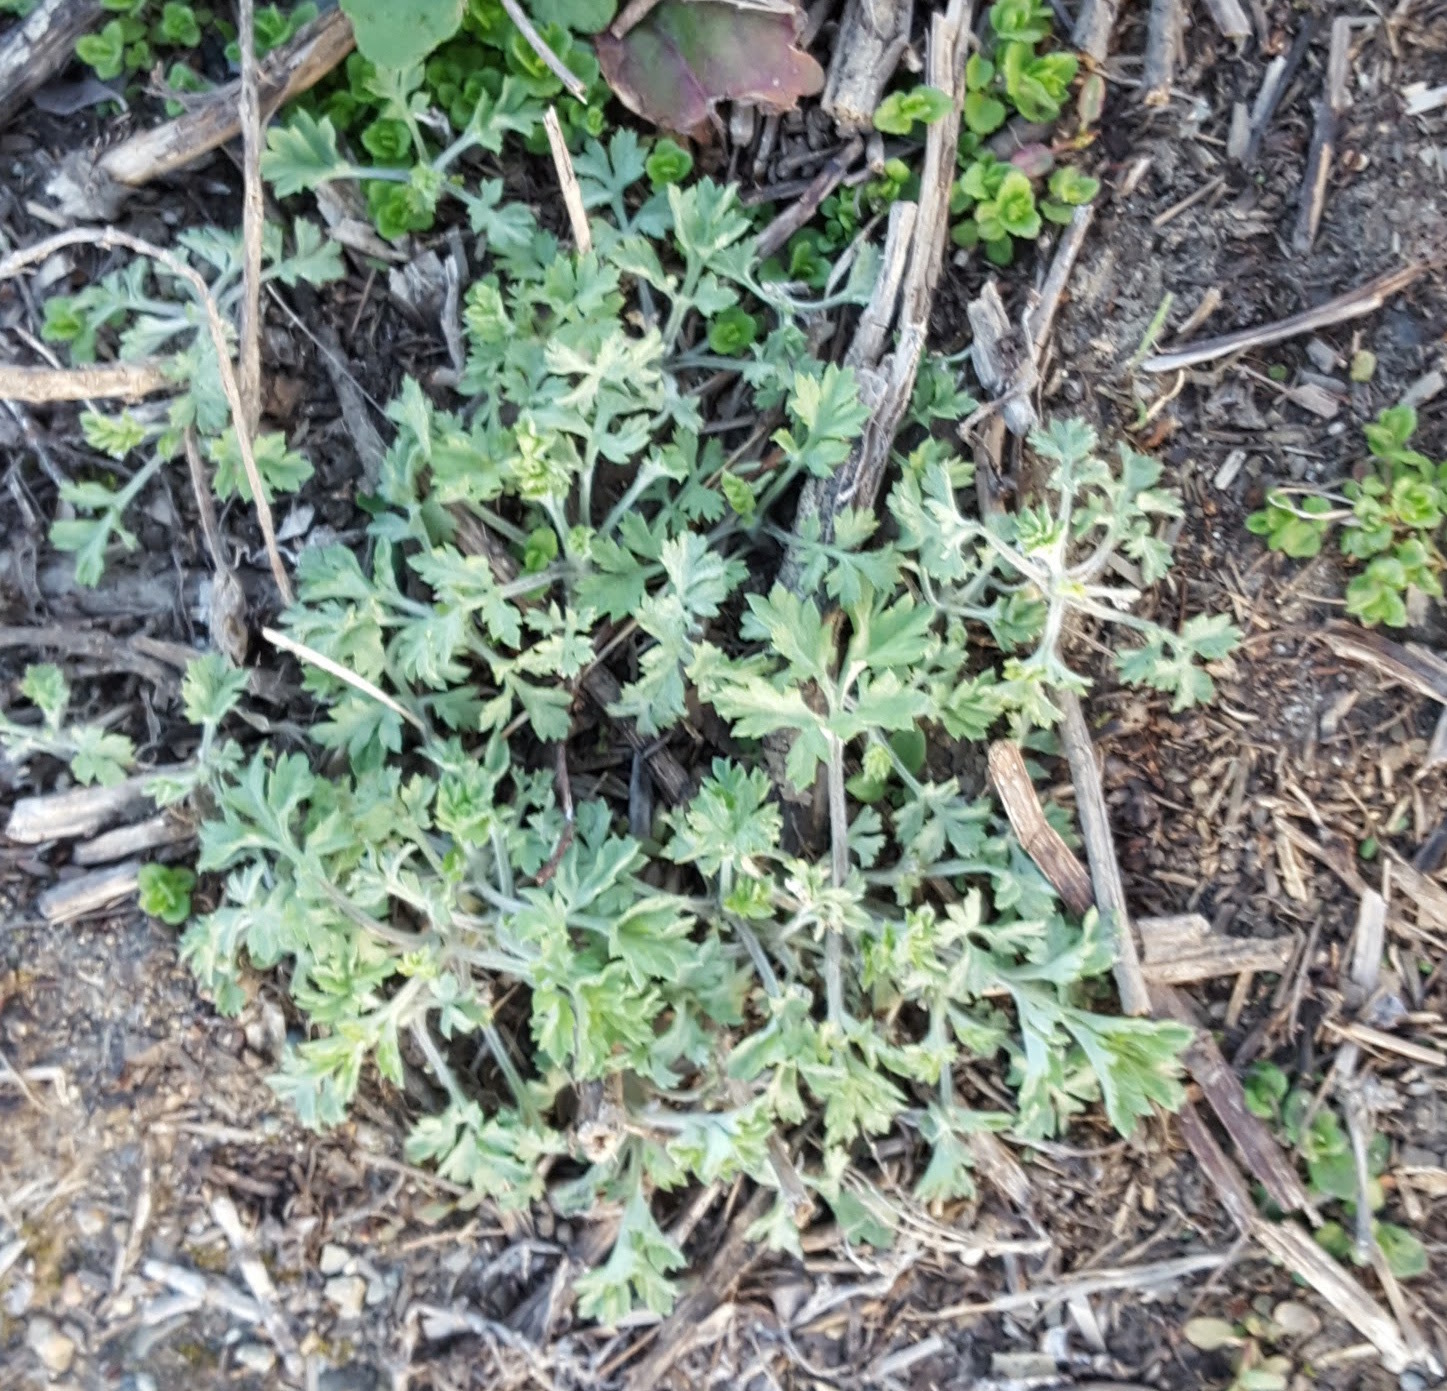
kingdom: Plantae
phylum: Tracheophyta
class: Magnoliopsida
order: Asterales
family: Asteraceae
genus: Artemisia
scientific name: Artemisia vulgaris
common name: Mugwort
